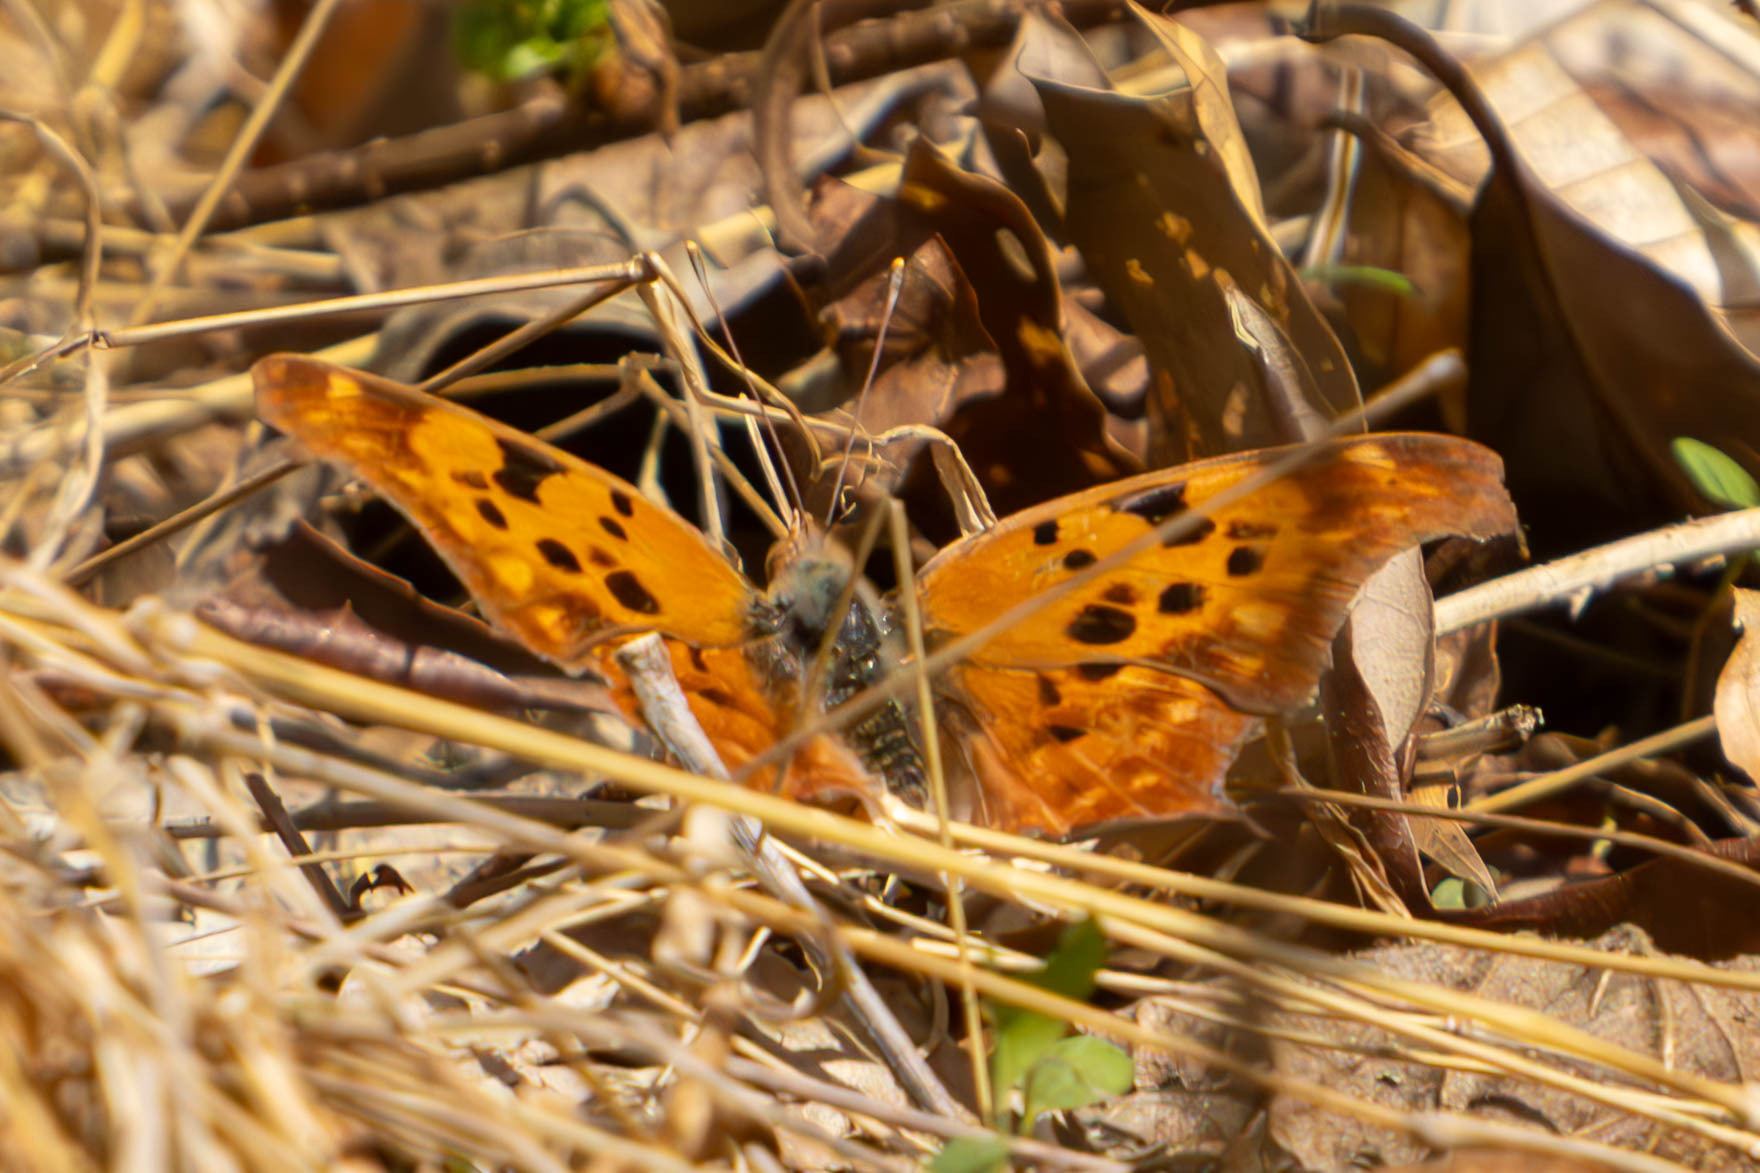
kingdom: Animalia
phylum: Arthropoda
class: Insecta
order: Lepidoptera
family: Nymphalidae
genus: Polygonia
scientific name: Polygonia interrogationis
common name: Question mark
